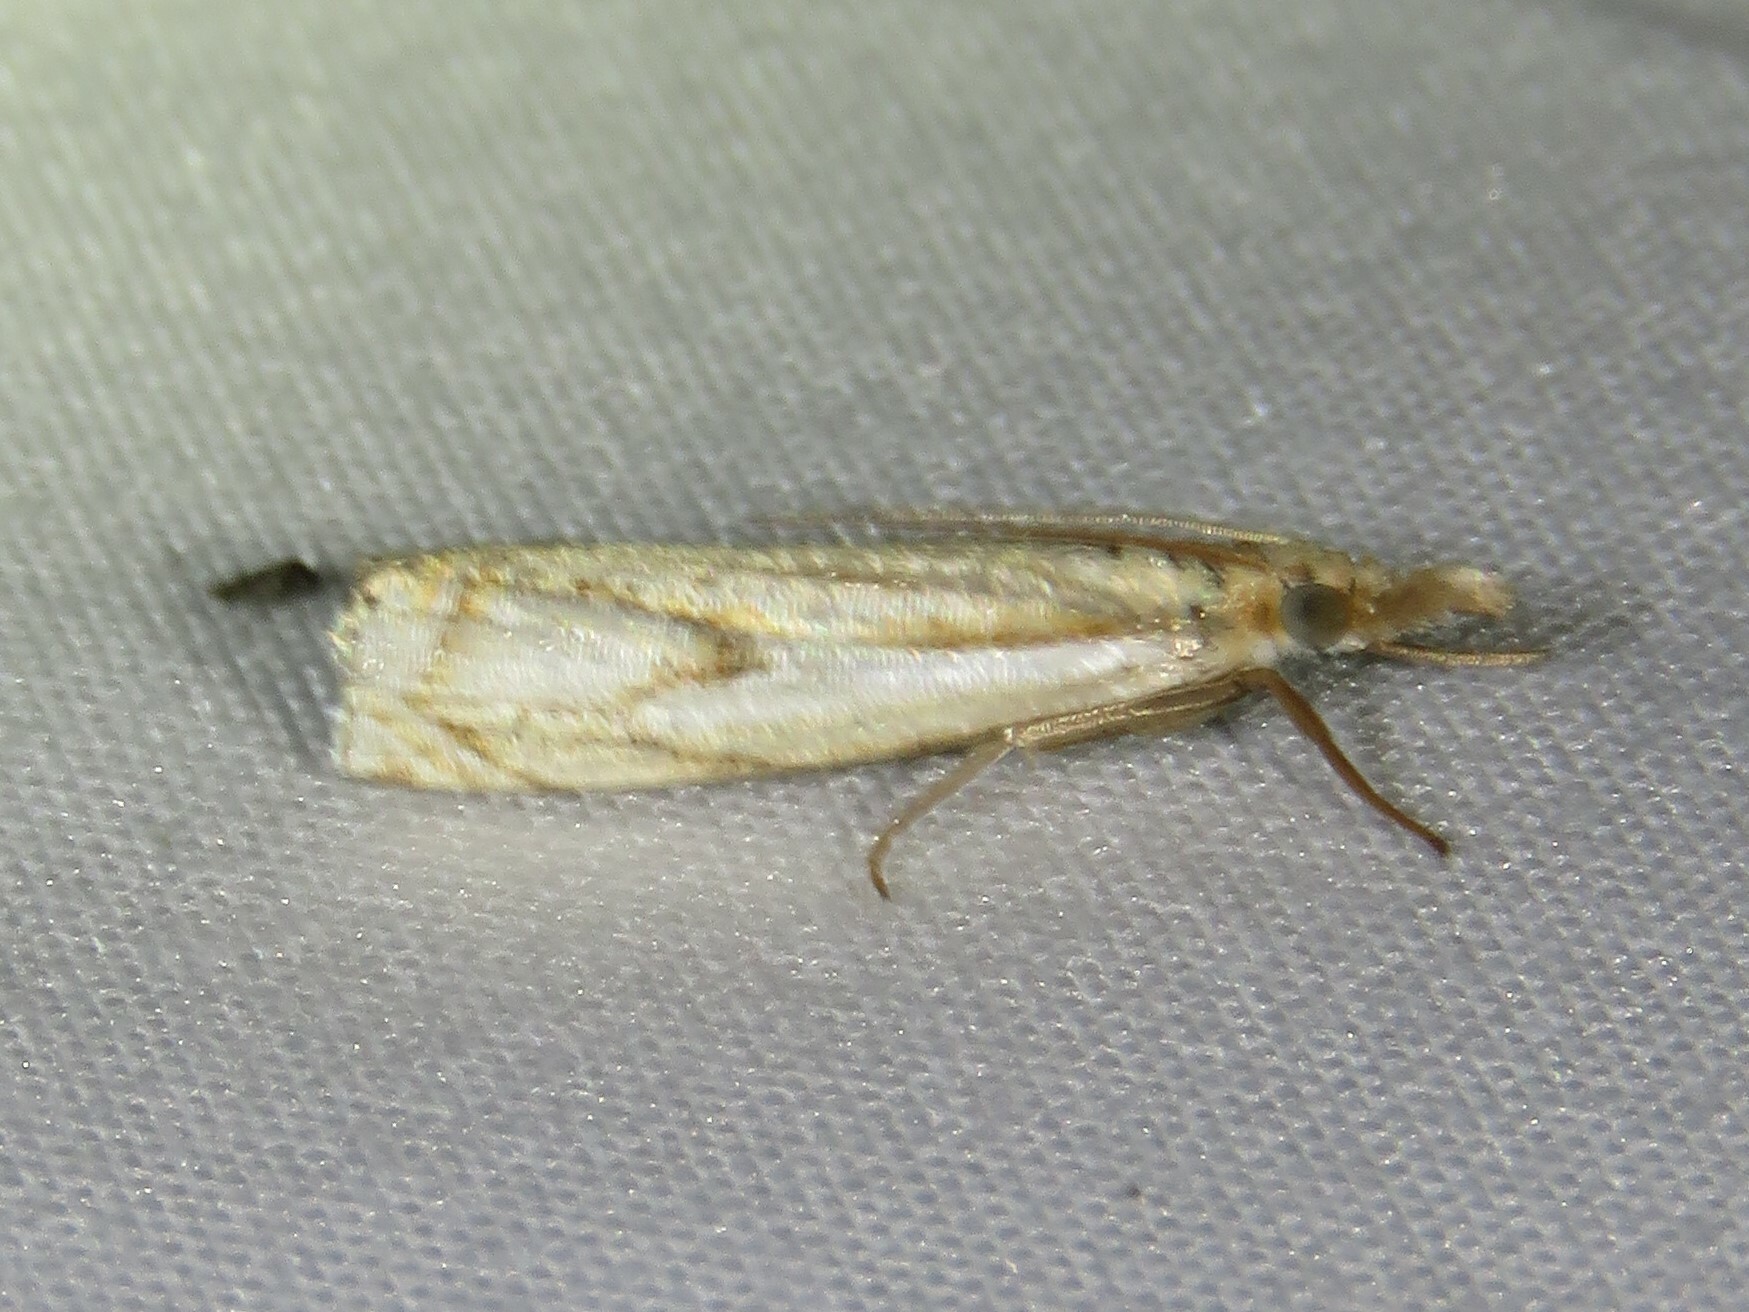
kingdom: Animalia
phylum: Arthropoda
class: Insecta
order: Lepidoptera
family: Crambidae
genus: Crambus
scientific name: Crambus agitatellus
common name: Double-banded grass-veneer
